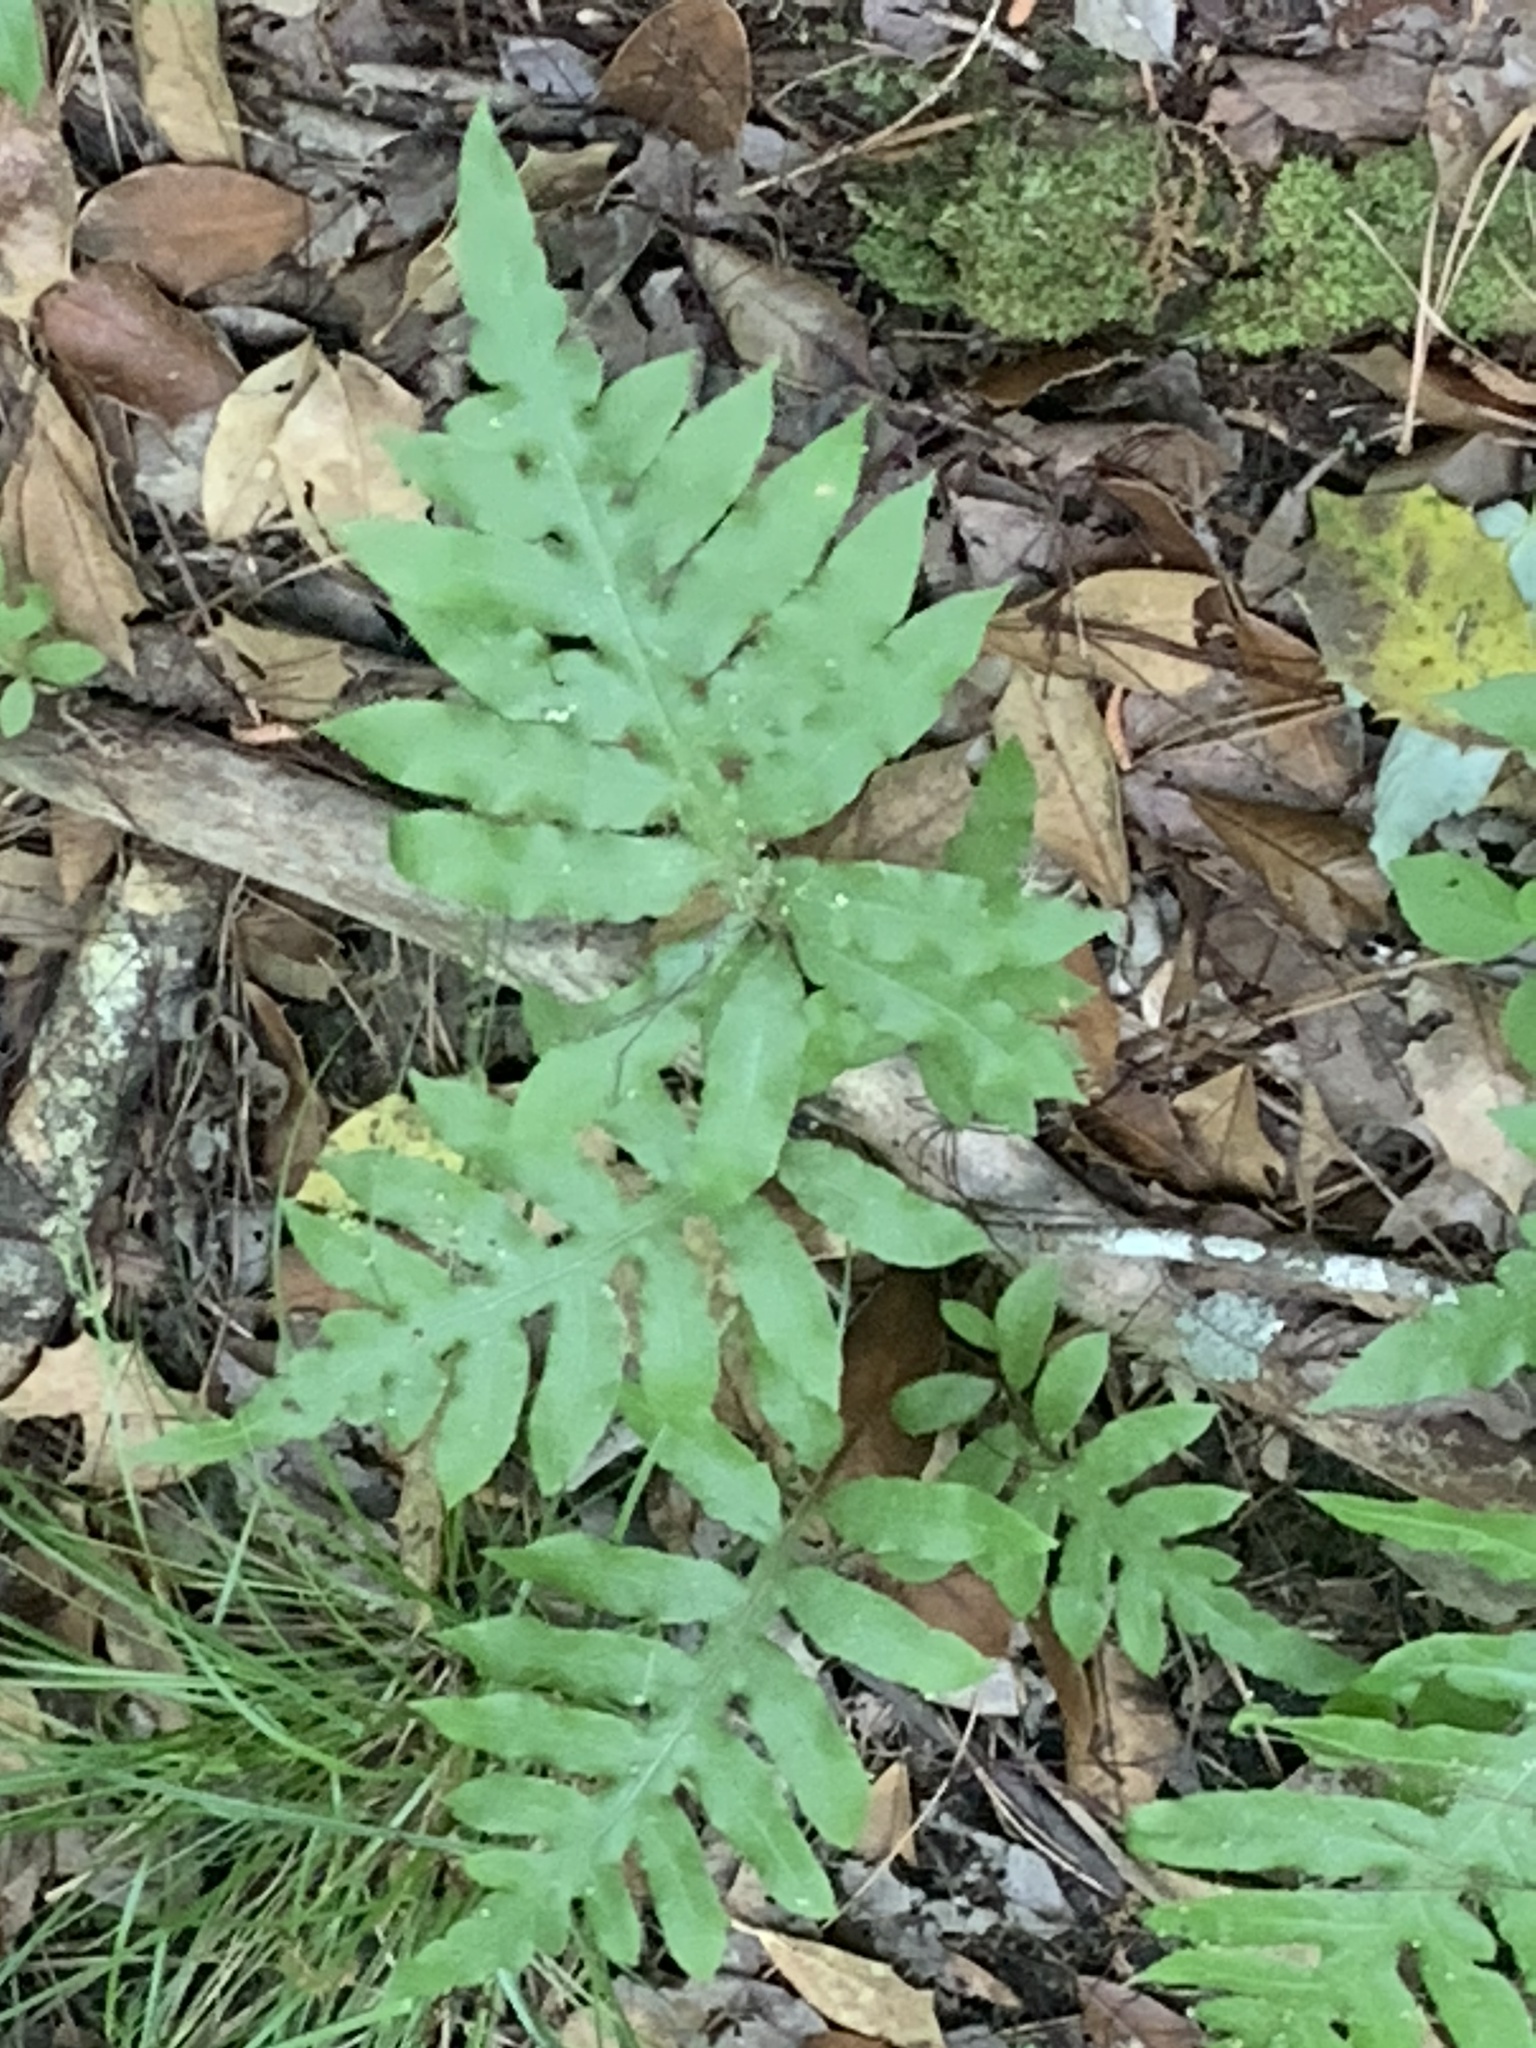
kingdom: Plantae
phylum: Tracheophyta
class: Polypodiopsida
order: Polypodiales
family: Blechnaceae
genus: Lorinseria
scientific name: Lorinseria areolata
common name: Dwarf chain fern
